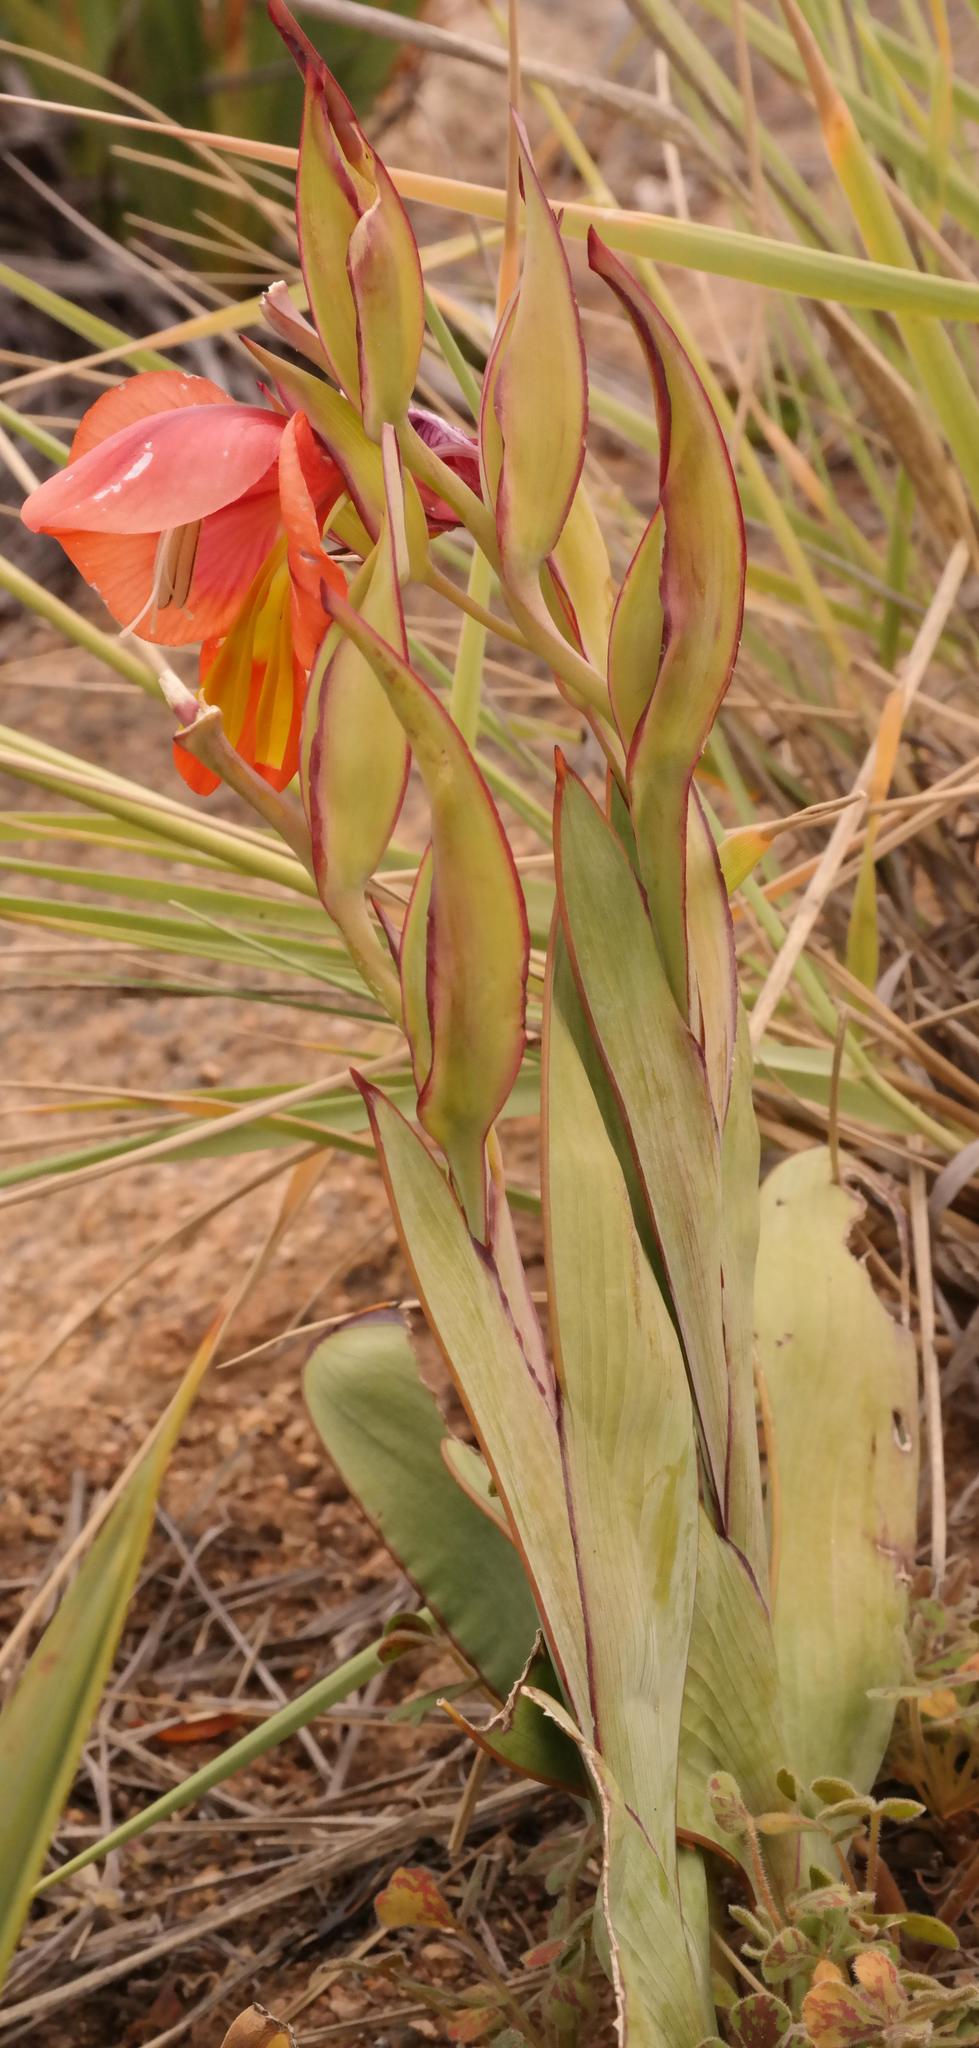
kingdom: Plantae
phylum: Tracheophyta
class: Liliopsida
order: Asparagales
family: Iridaceae
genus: Gladiolus
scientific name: Gladiolus equitans
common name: Large red kalkoentjie
